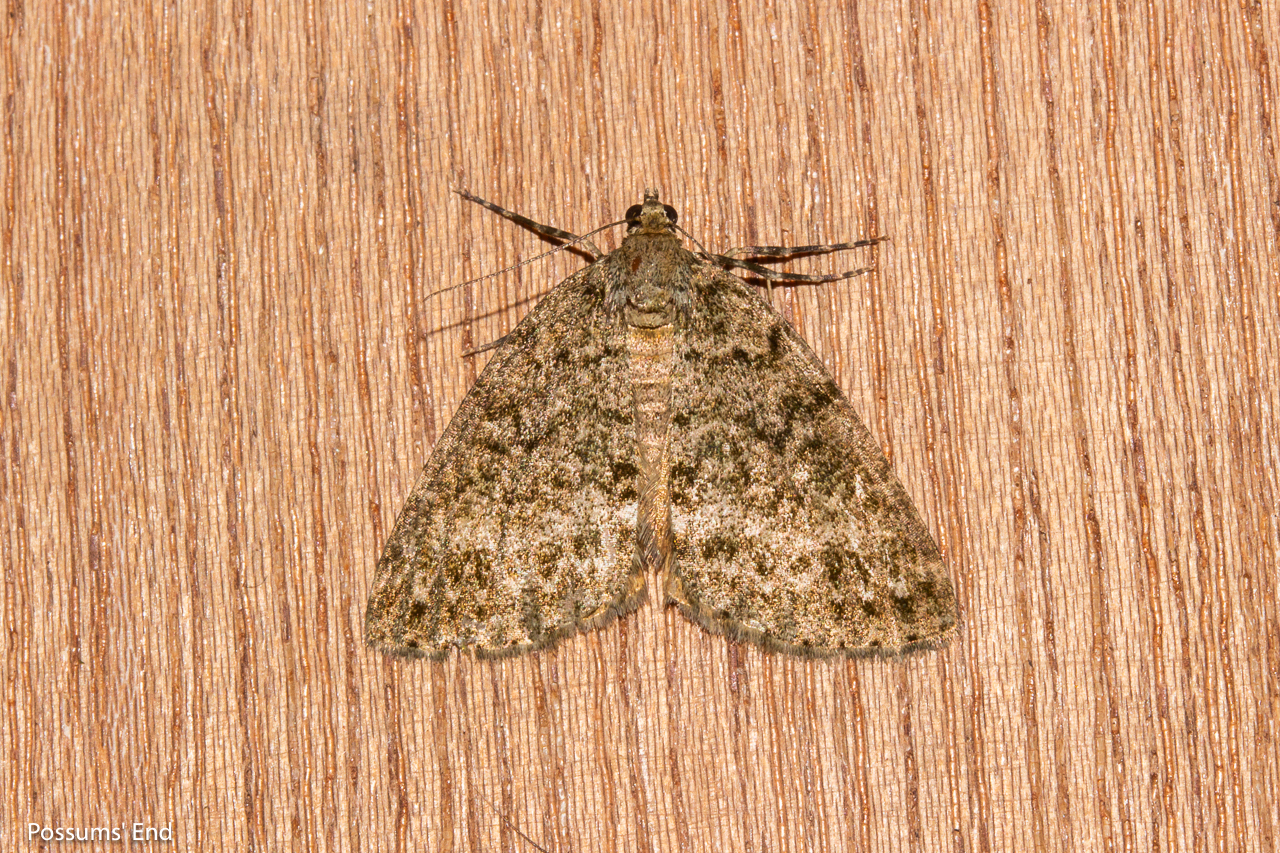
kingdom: Animalia
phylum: Arthropoda
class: Insecta
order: Lepidoptera
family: Geometridae
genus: Pseudocoremia
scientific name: Pseudocoremia indistincta
